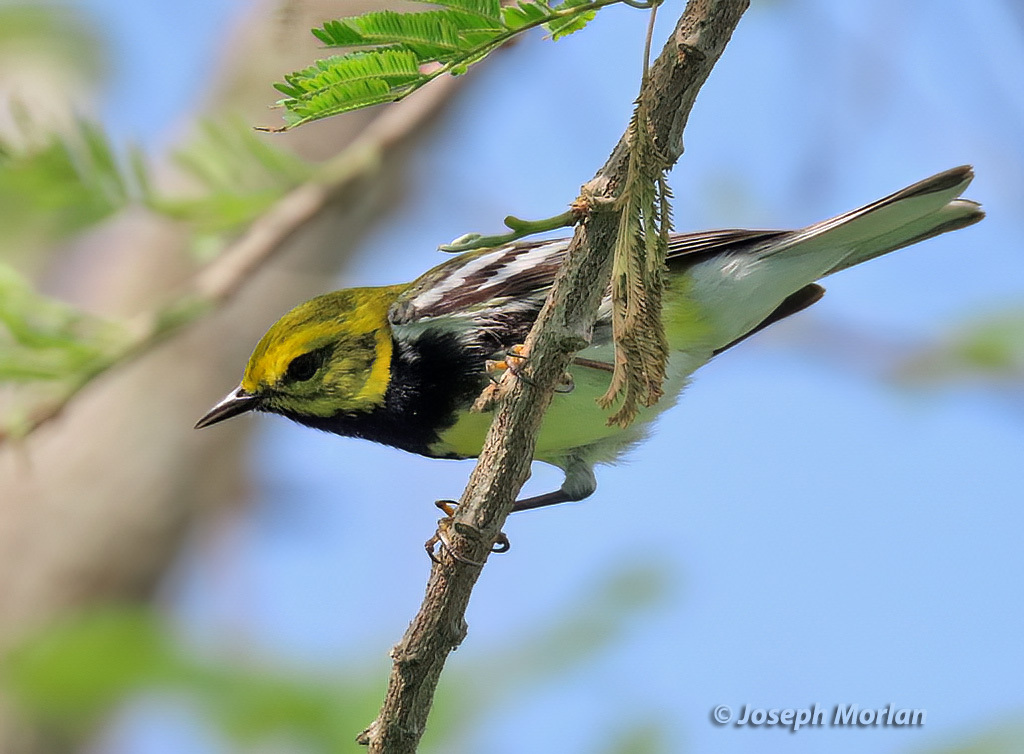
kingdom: Animalia
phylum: Chordata
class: Aves
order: Passeriformes
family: Parulidae
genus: Setophaga
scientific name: Setophaga virens
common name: Black-throated green warbler
